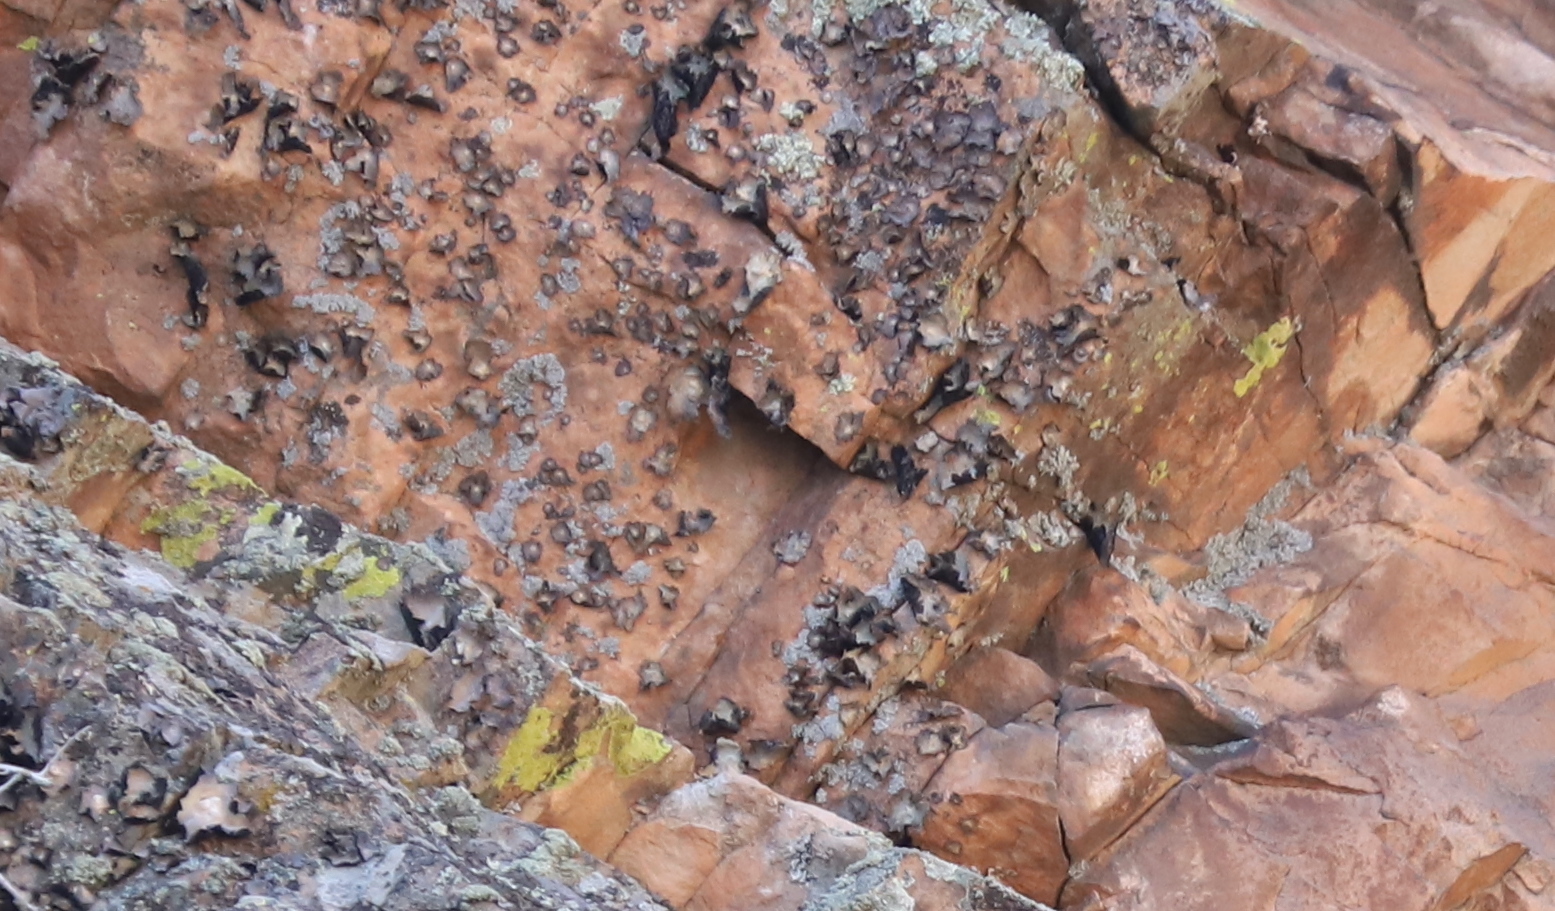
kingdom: Fungi
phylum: Ascomycota
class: Lecanoromycetes
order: Umbilicariales
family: Umbilicariaceae
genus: Umbilicaria
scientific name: Umbilicaria americana
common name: Frosted rock tripe
